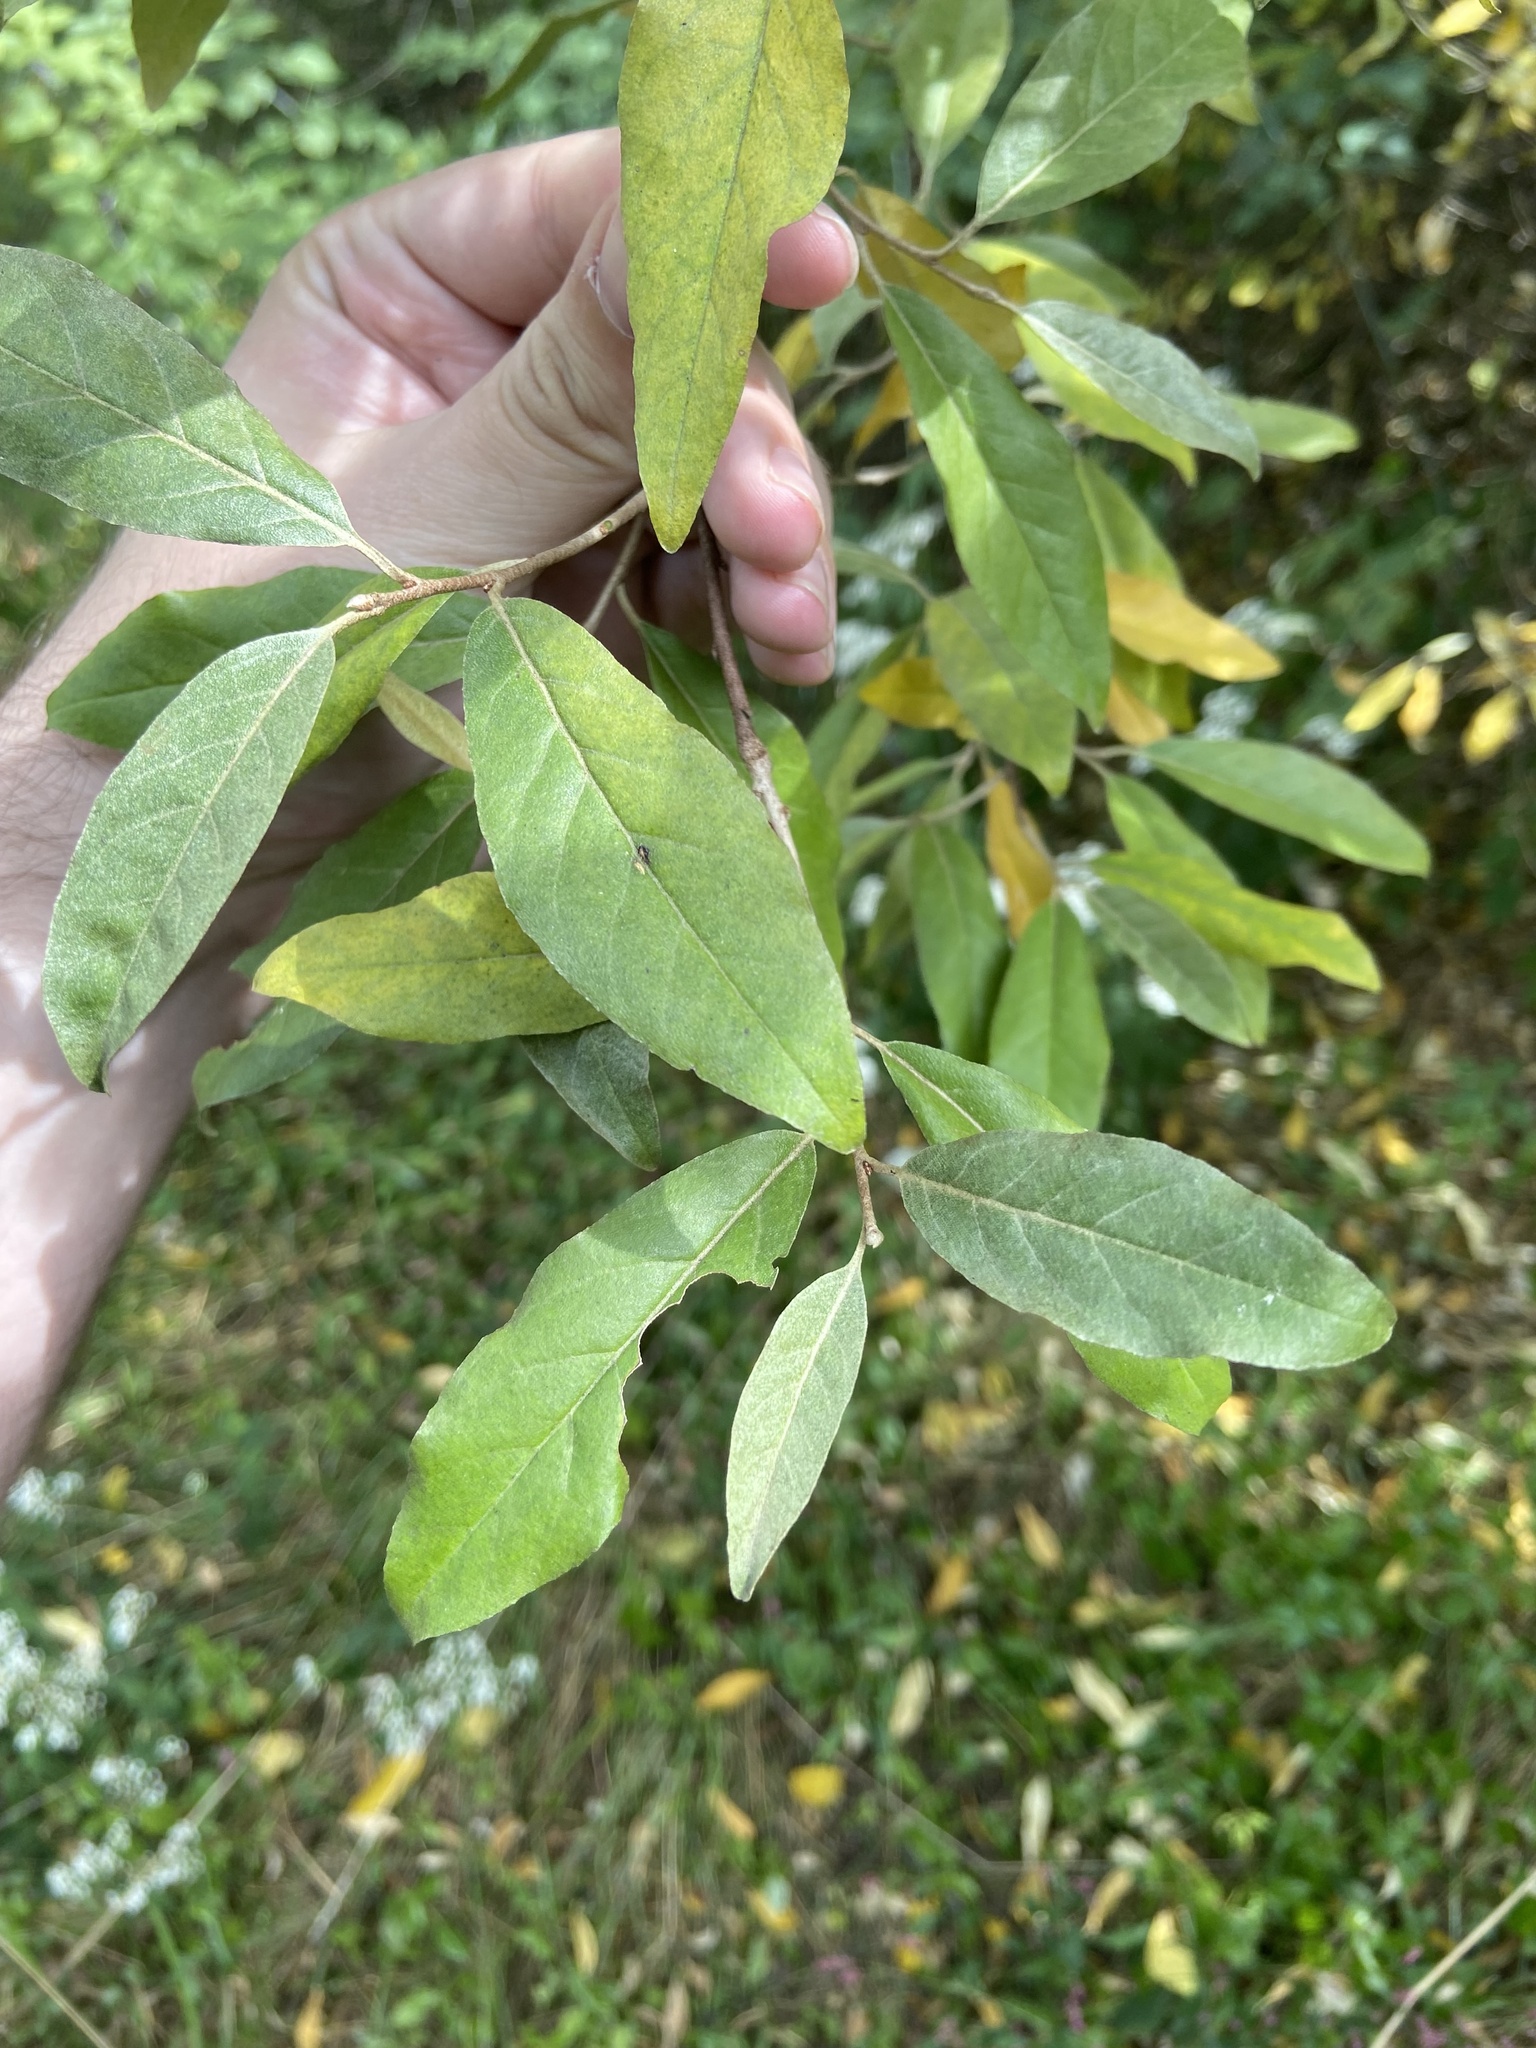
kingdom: Plantae
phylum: Tracheophyta
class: Magnoliopsida
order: Rosales
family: Elaeagnaceae
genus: Elaeagnus
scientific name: Elaeagnus umbellata
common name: Autumn olive
